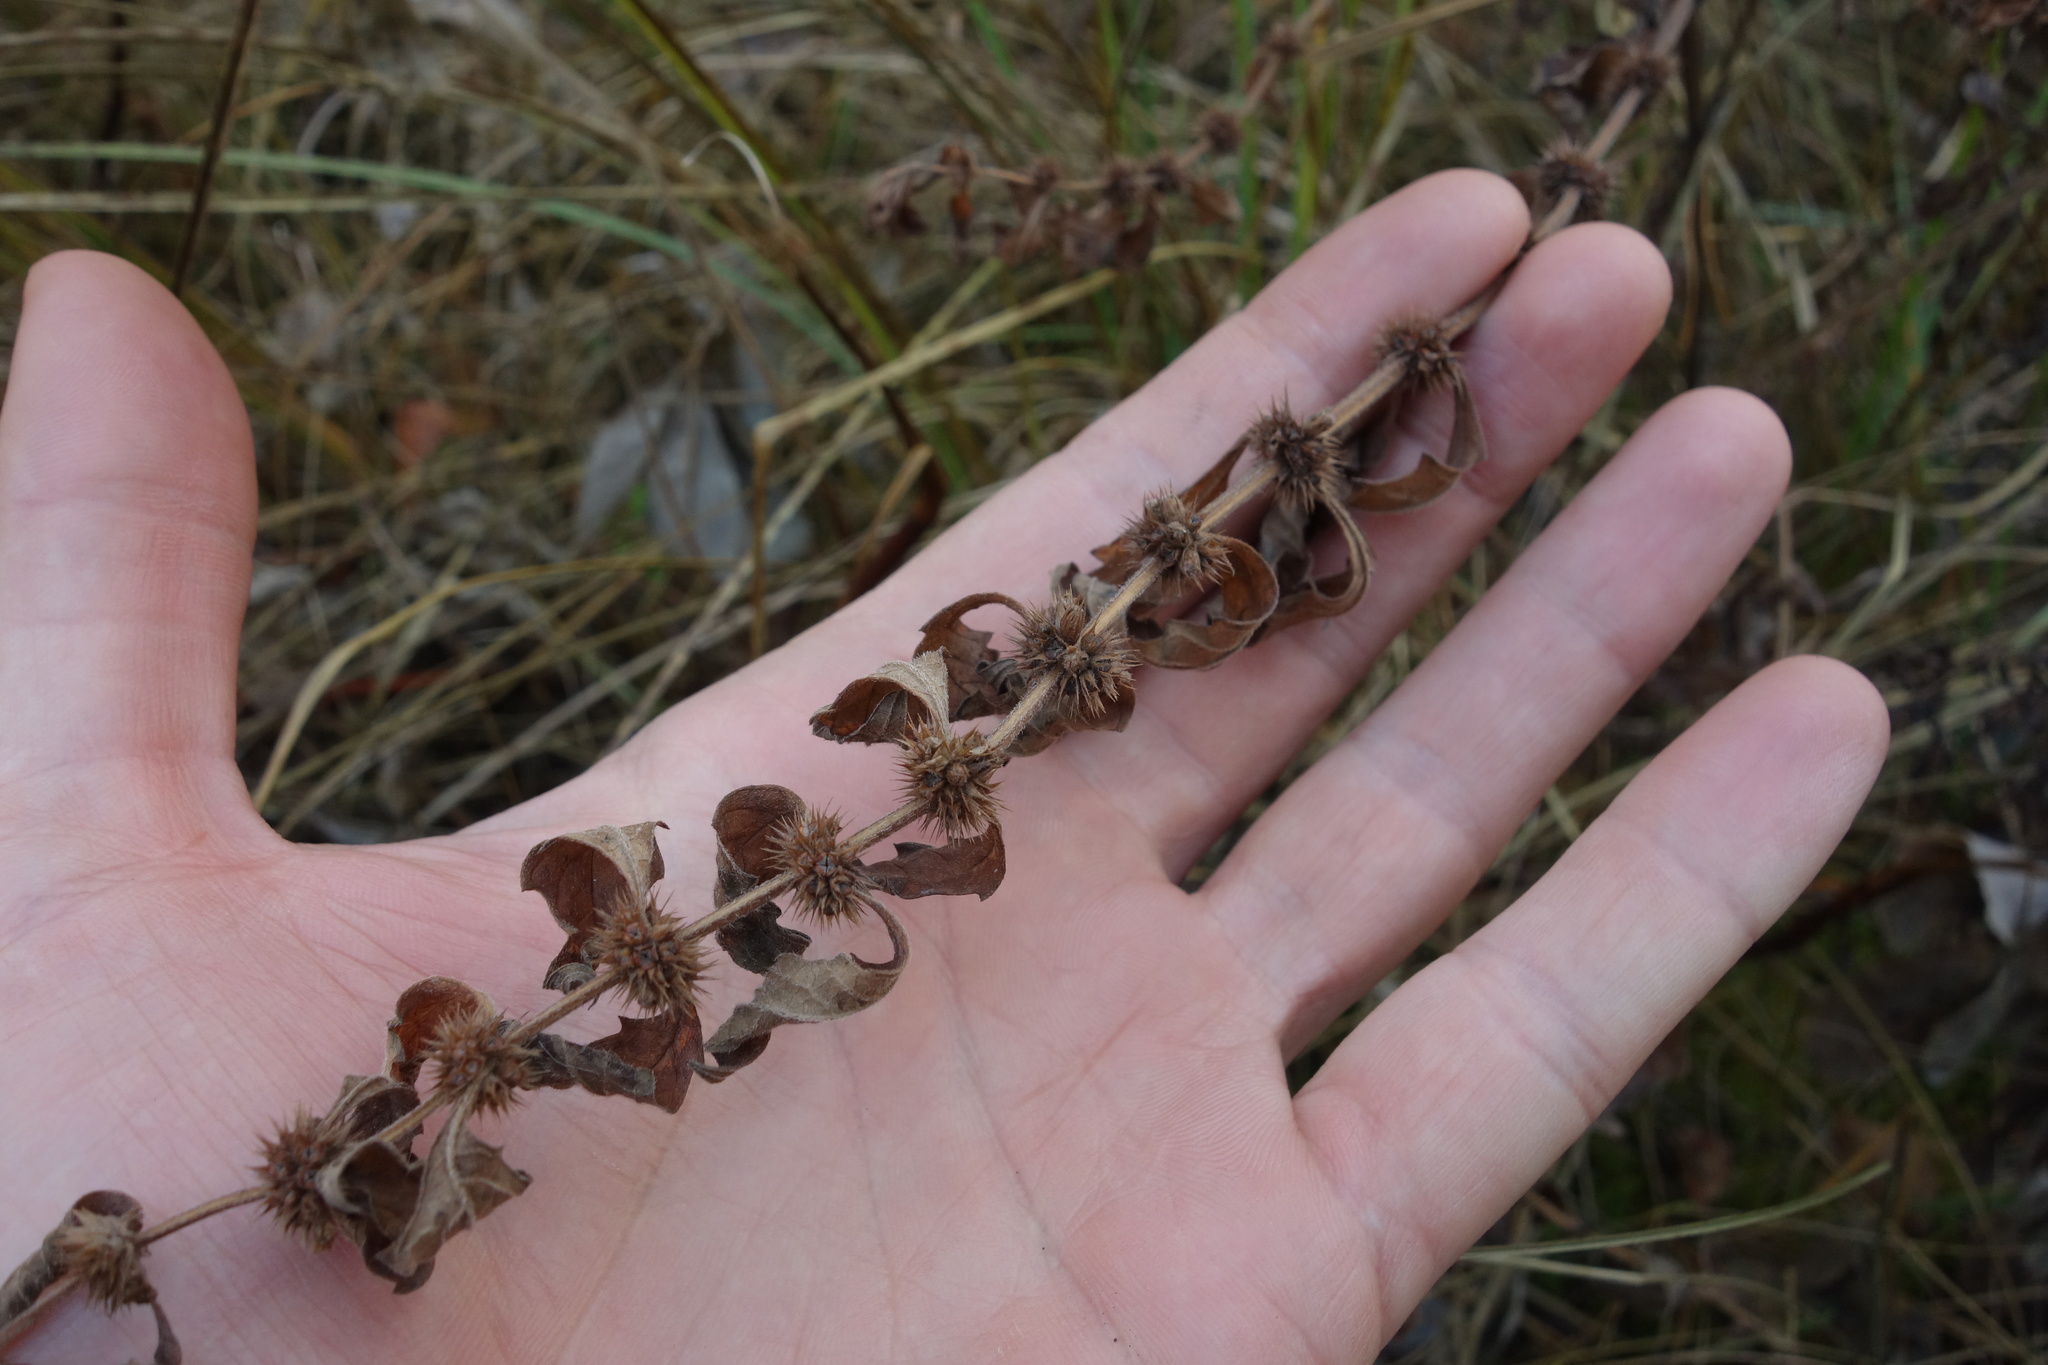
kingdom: Plantae
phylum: Tracheophyta
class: Magnoliopsida
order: Lamiales
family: Lamiaceae
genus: Lycopus
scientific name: Lycopus europaeus
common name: European bugleweed
